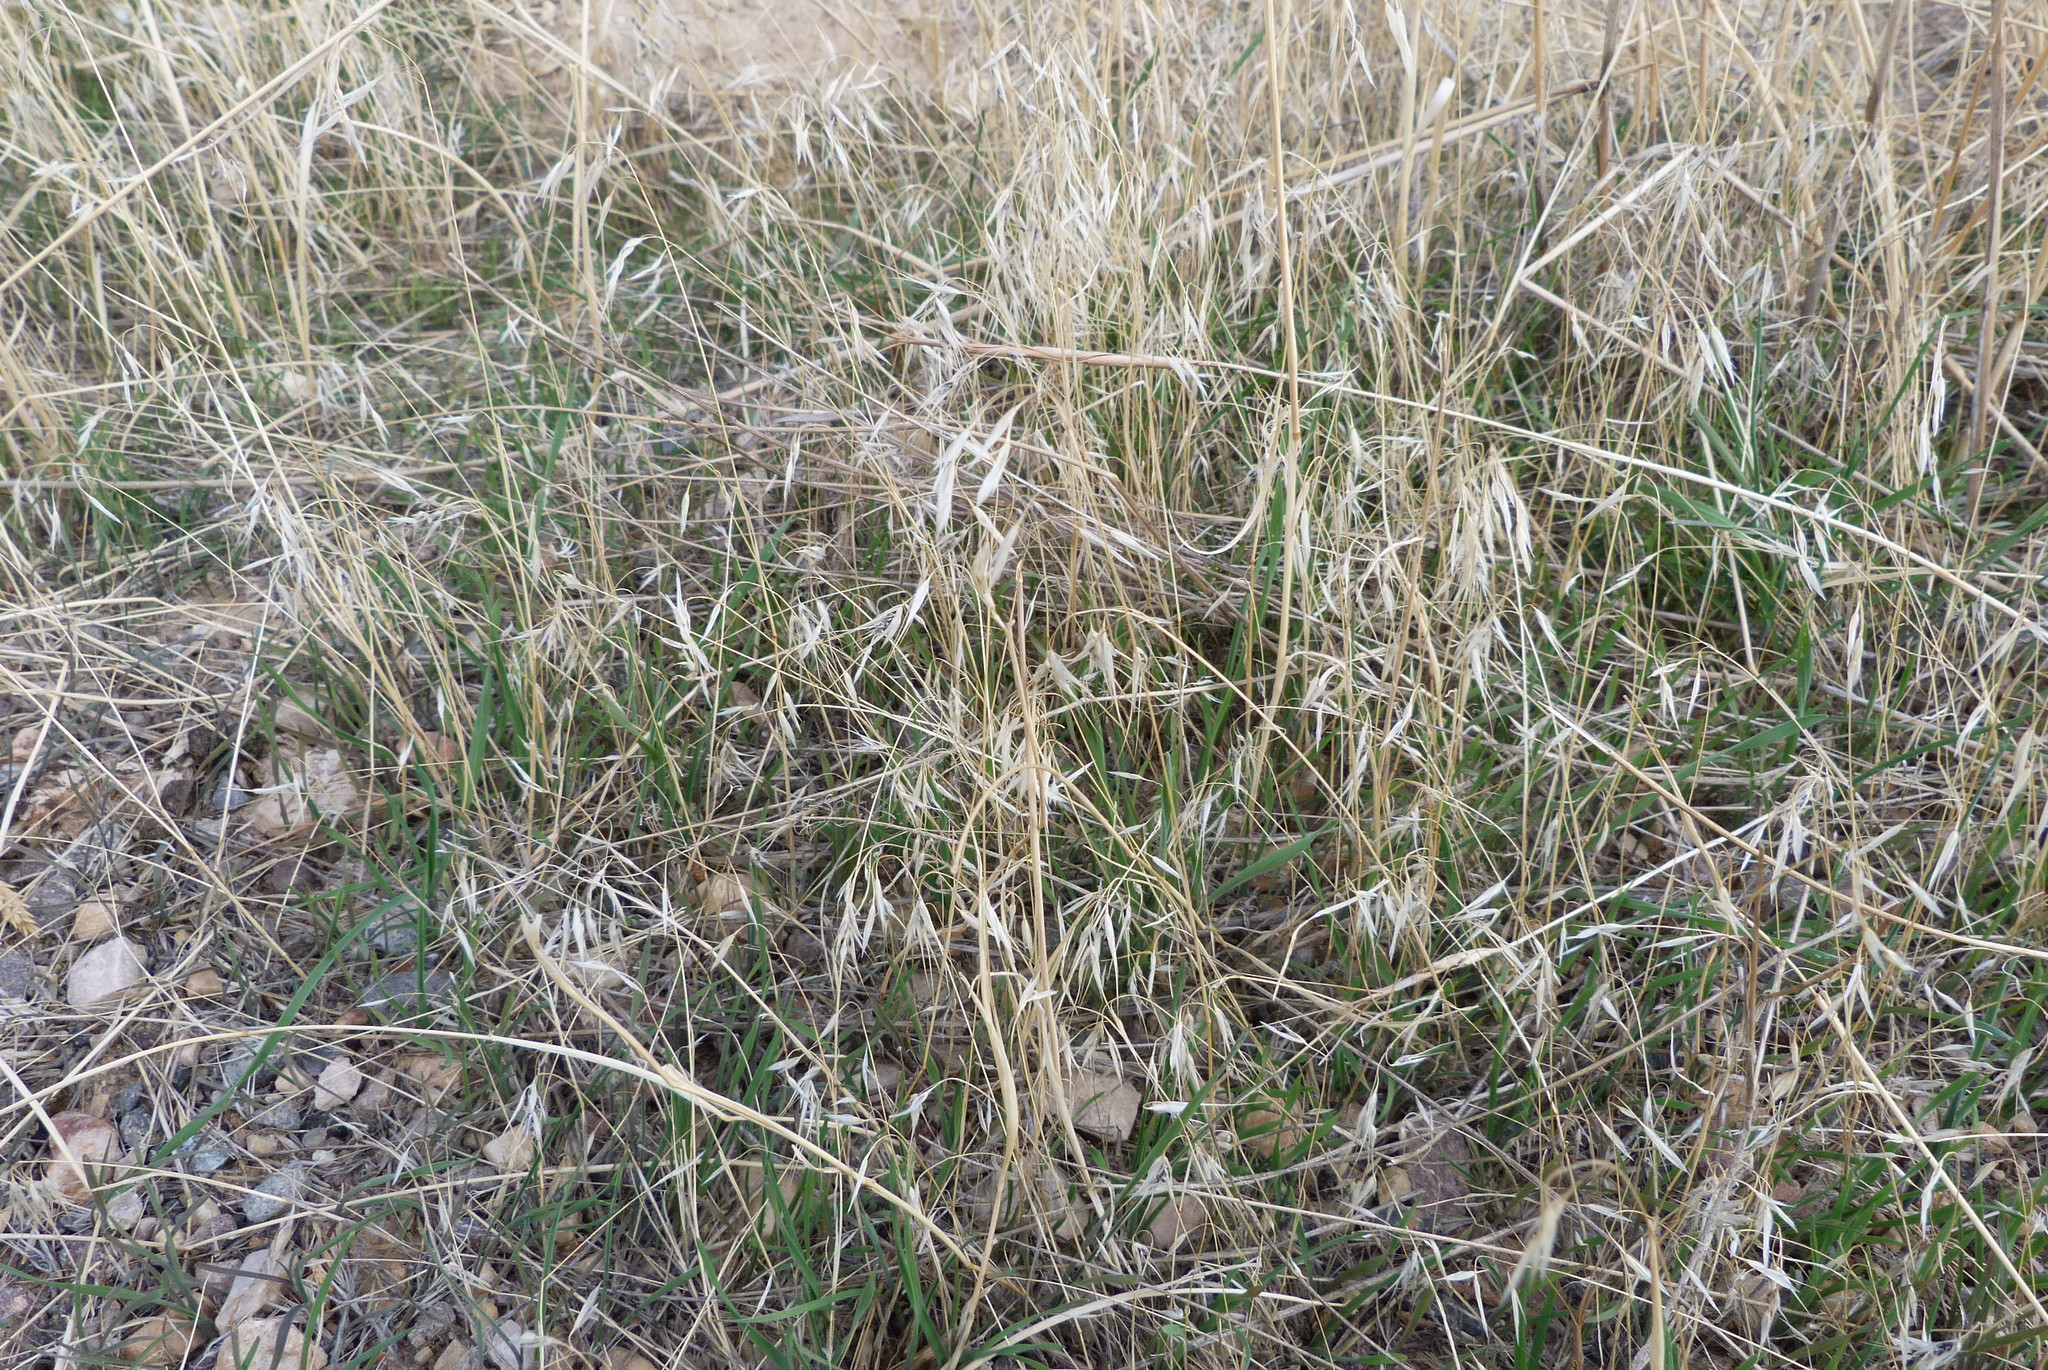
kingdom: Plantae
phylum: Tracheophyta
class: Liliopsida
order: Poales
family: Poaceae
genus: Bromus
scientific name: Bromus tectorum
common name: Cheatgrass
